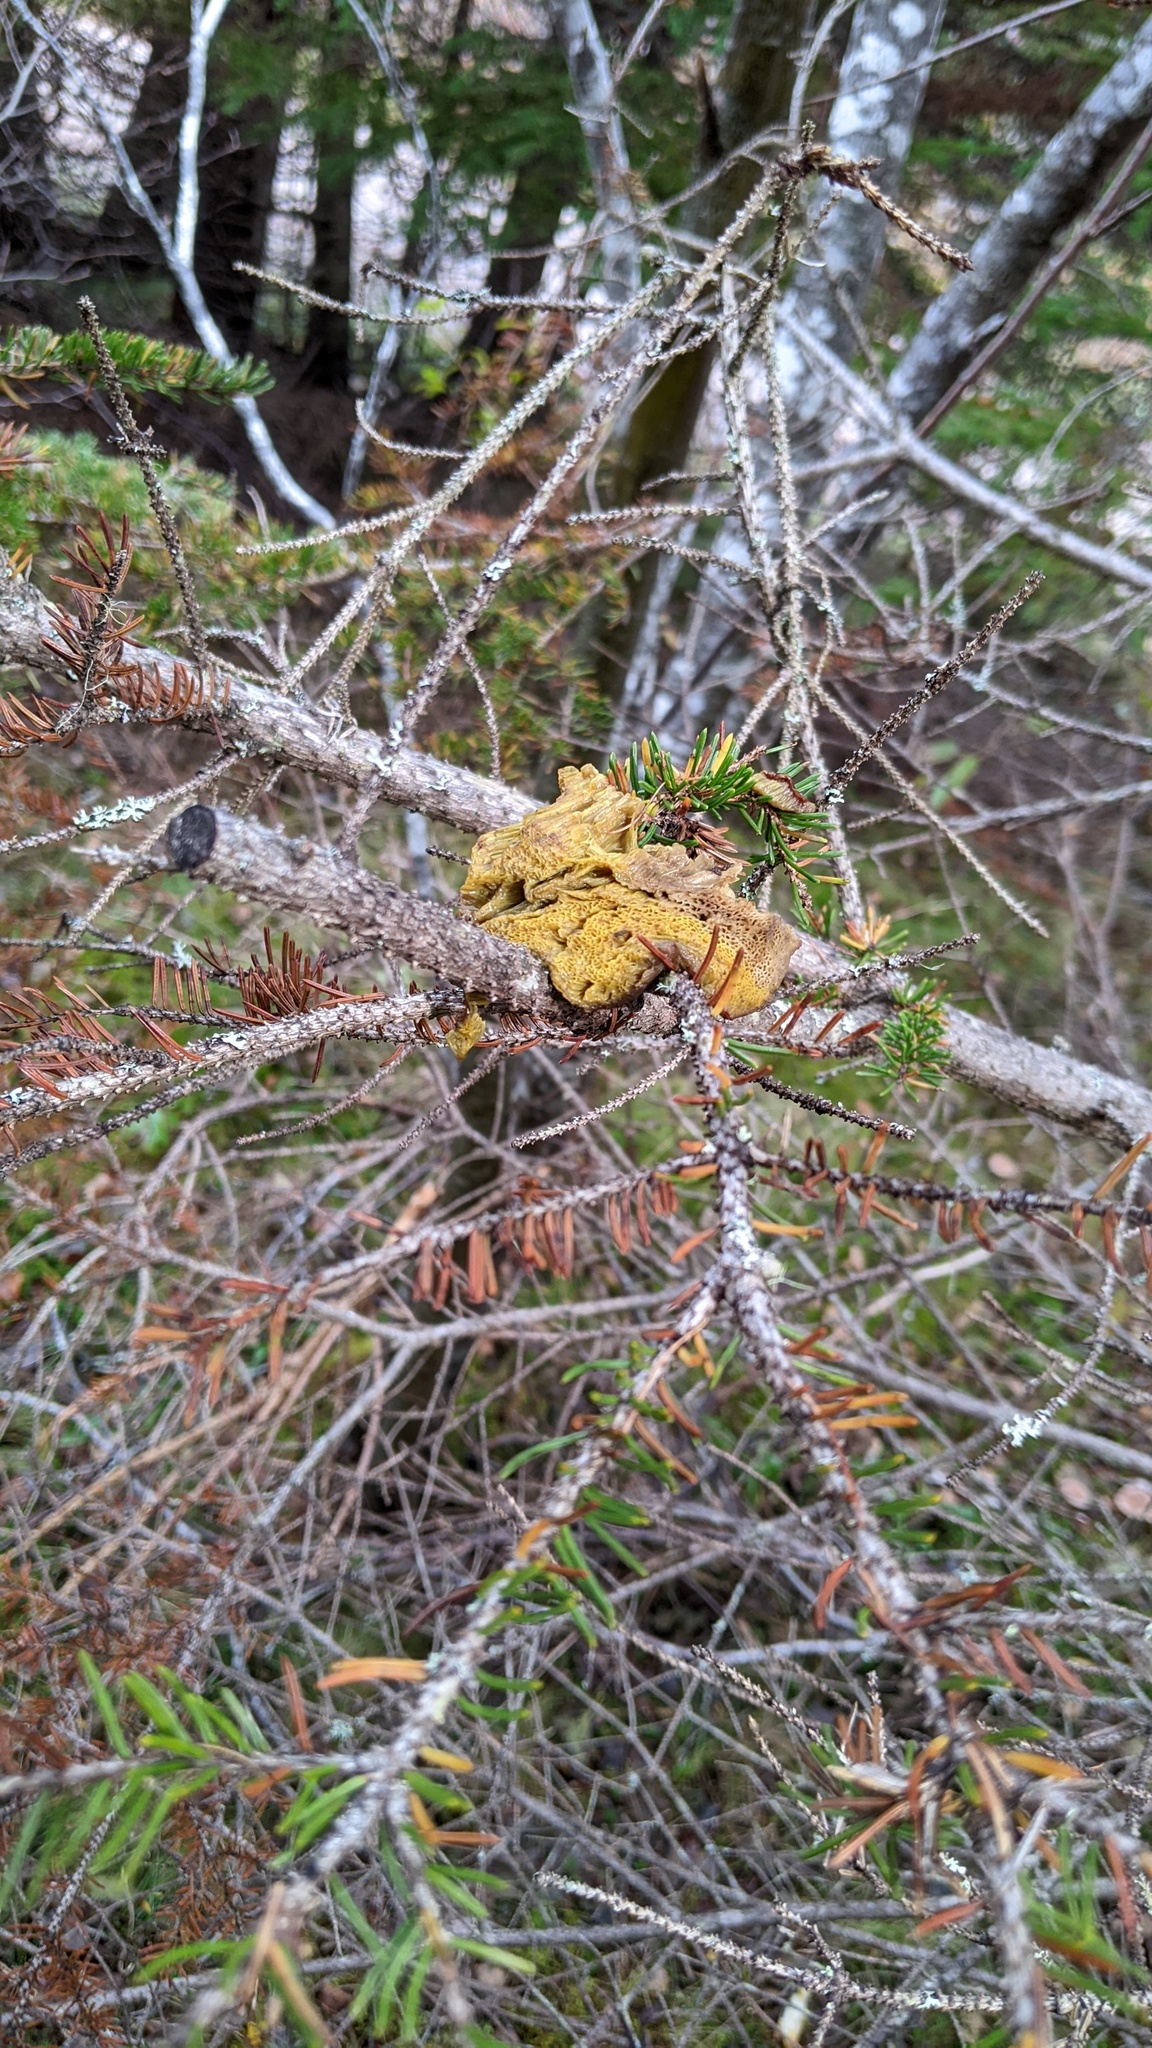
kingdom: Animalia
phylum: Chordata
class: Mammalia
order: Rodentia
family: Sciuridae
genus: Tamiasciurus
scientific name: Tamiasciurus hudsonicus
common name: Red squirrel
